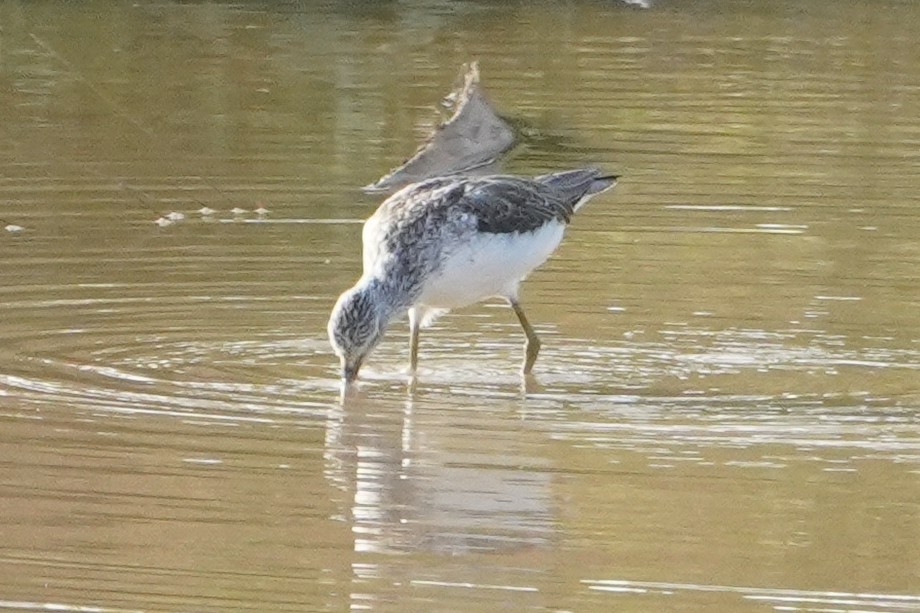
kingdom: Animalia
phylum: Chordata
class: Aves
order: Charadriiformes
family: Scolopacidae
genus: Tringa
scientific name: Tringa nebularia
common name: Common greenshank
